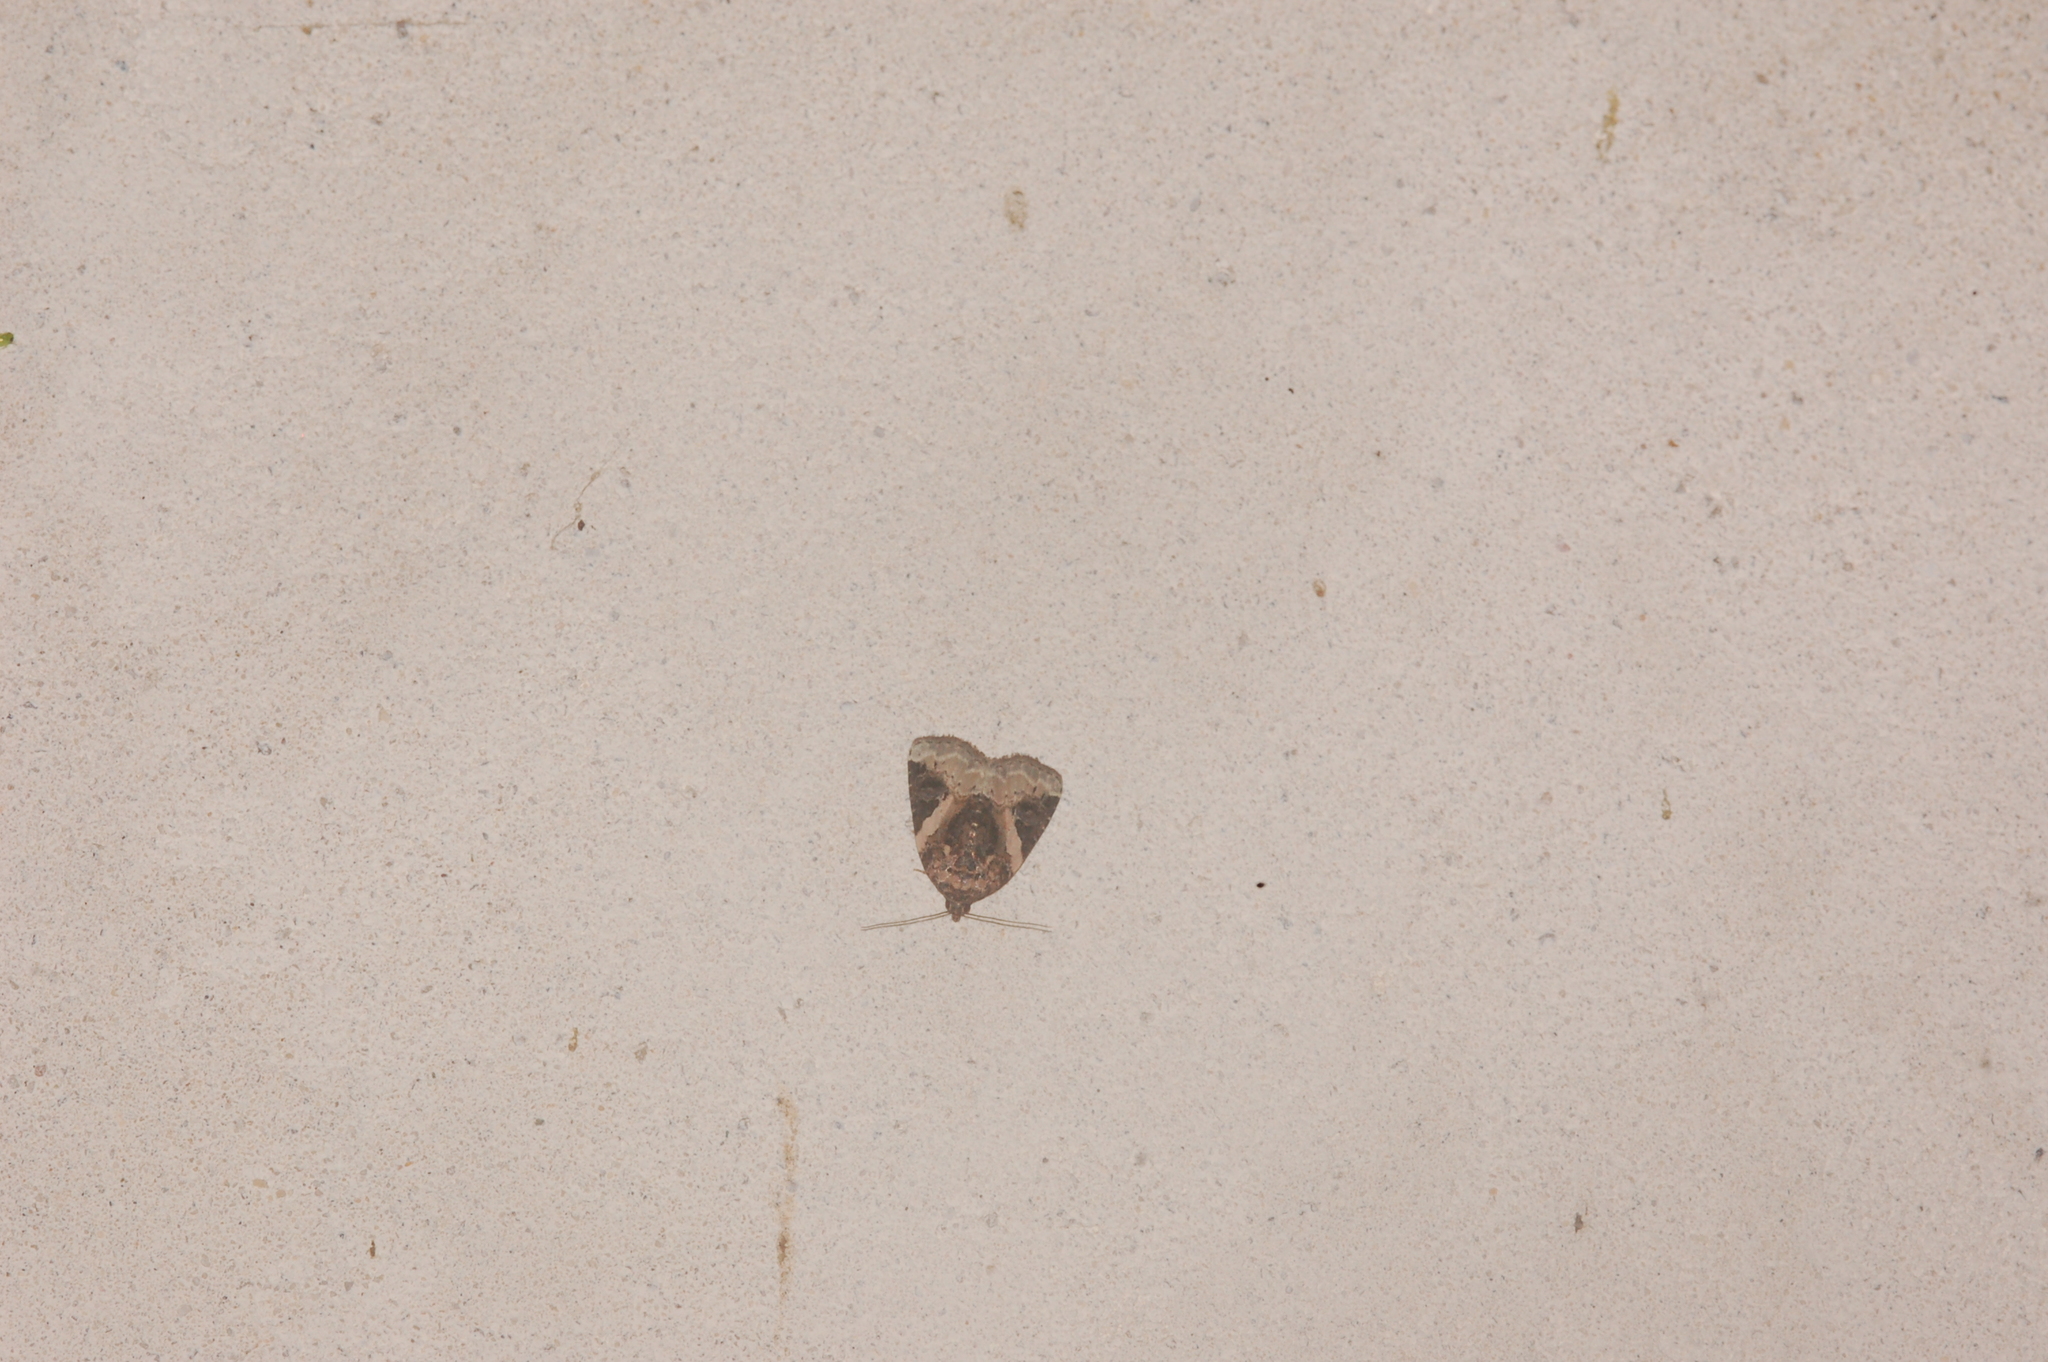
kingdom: Animalia
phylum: Arthropoda
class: Insecta
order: Lepidoptera
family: Noctuidae
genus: Pseudeustrotia
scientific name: Pseudeustrotia carneola
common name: Pink-barred lithacodia moth
